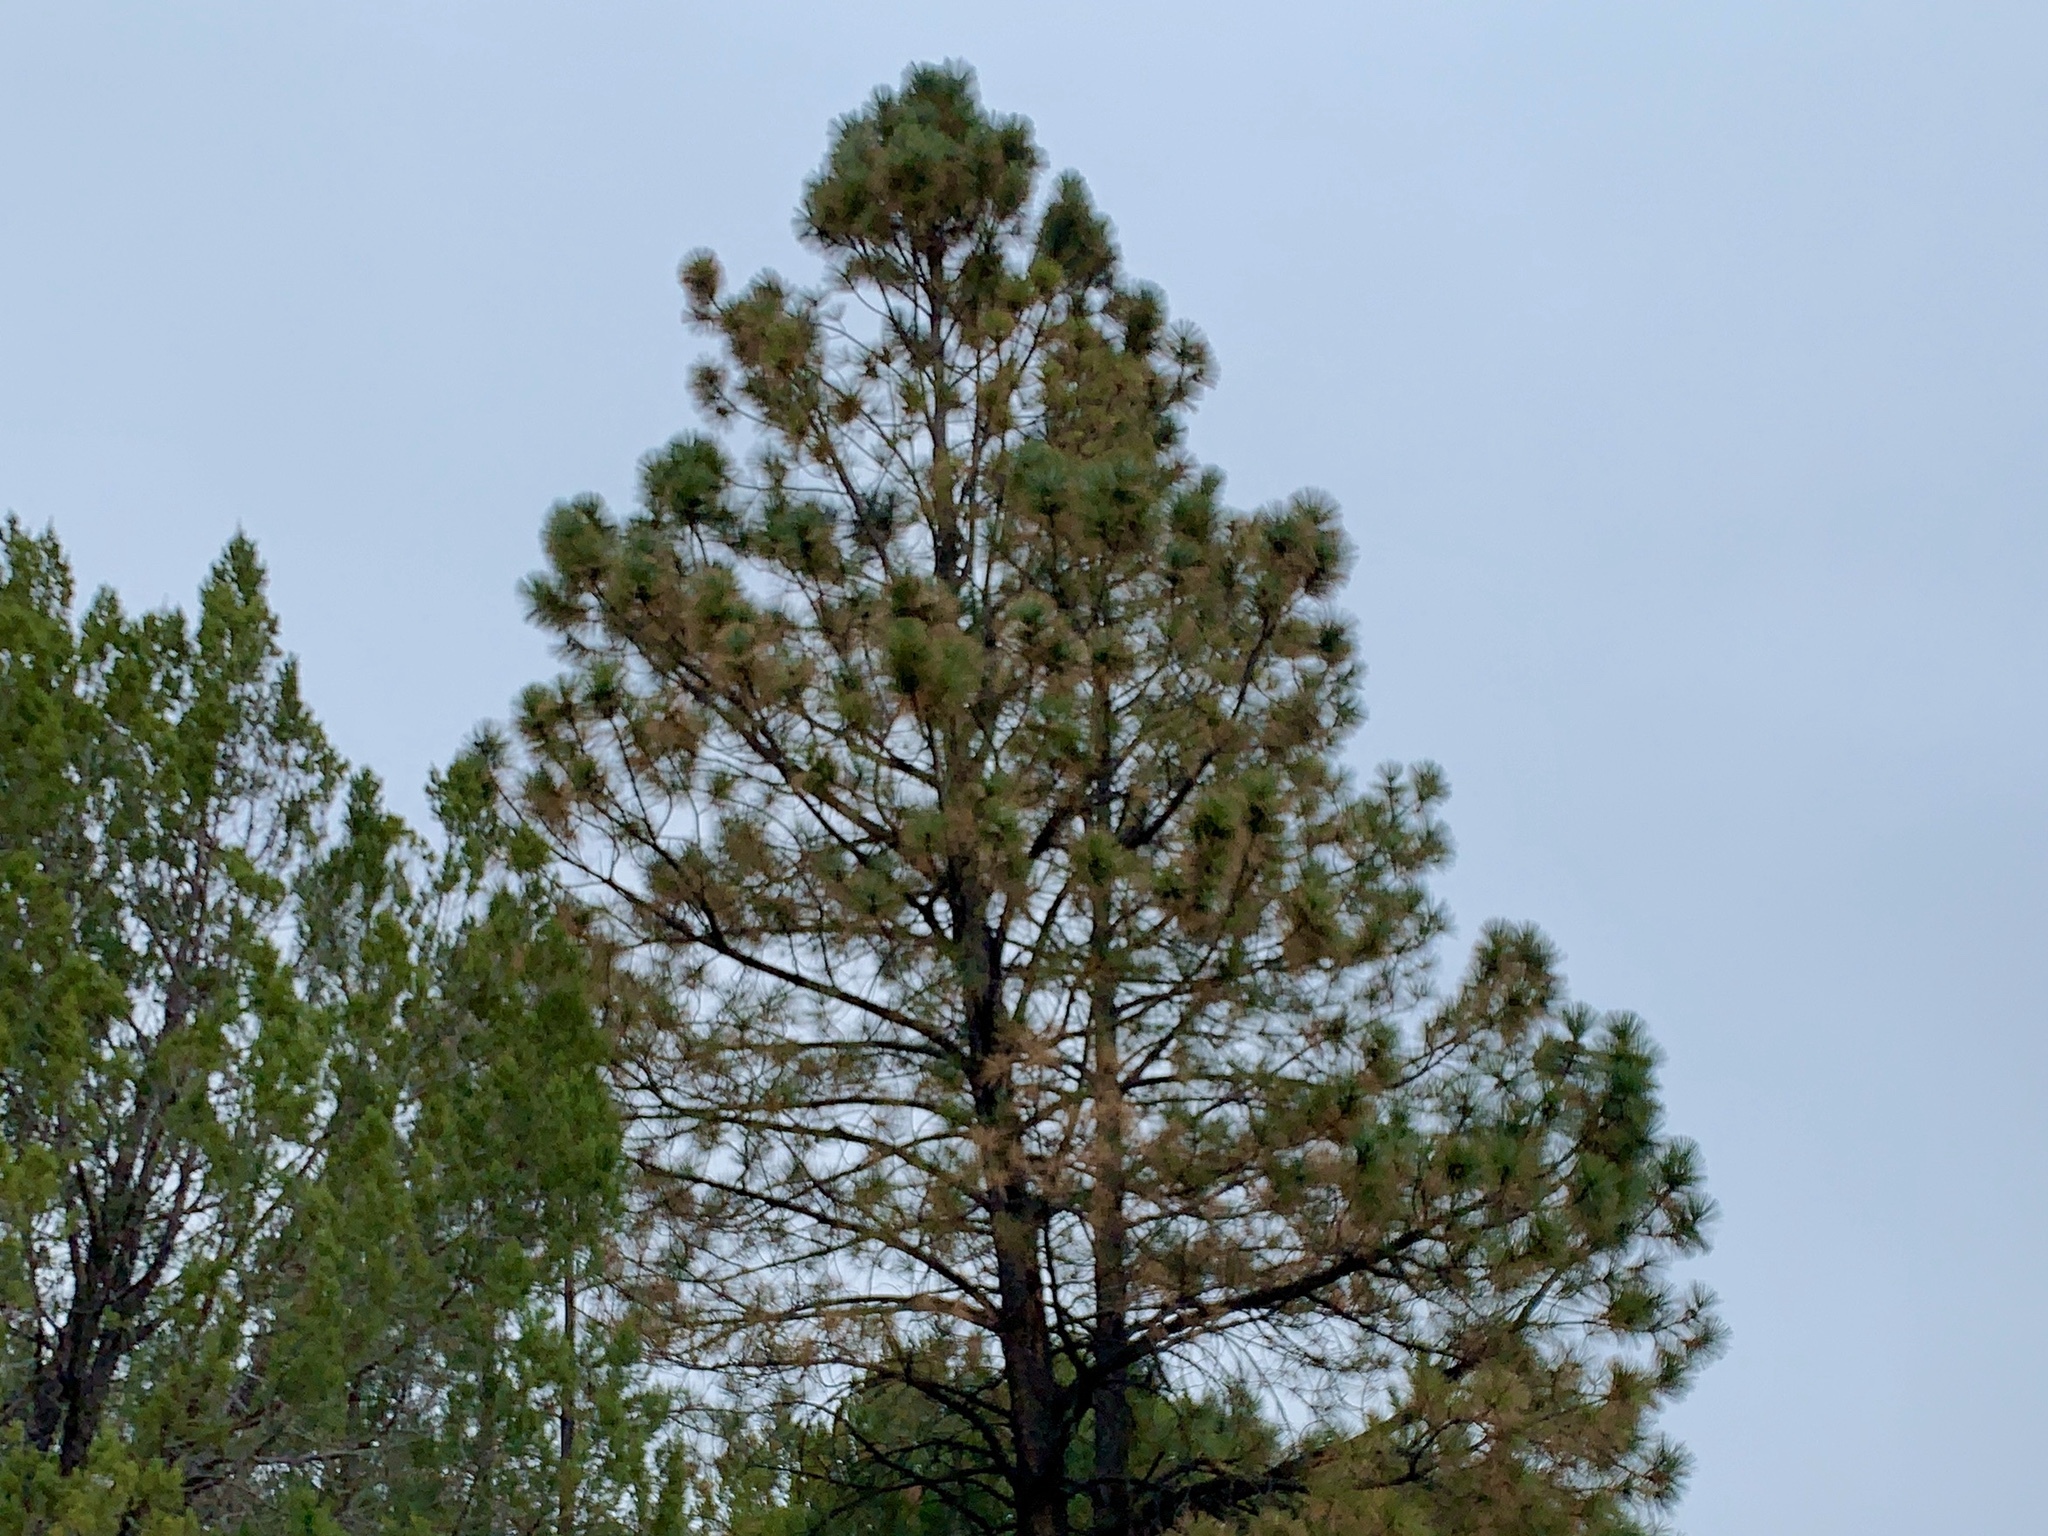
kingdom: Plantae
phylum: Tracheophyta
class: Pinopsida
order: Pinales
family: Pinaceae
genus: Pinus
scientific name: Pinus ponderosa
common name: Western yellow-pine
